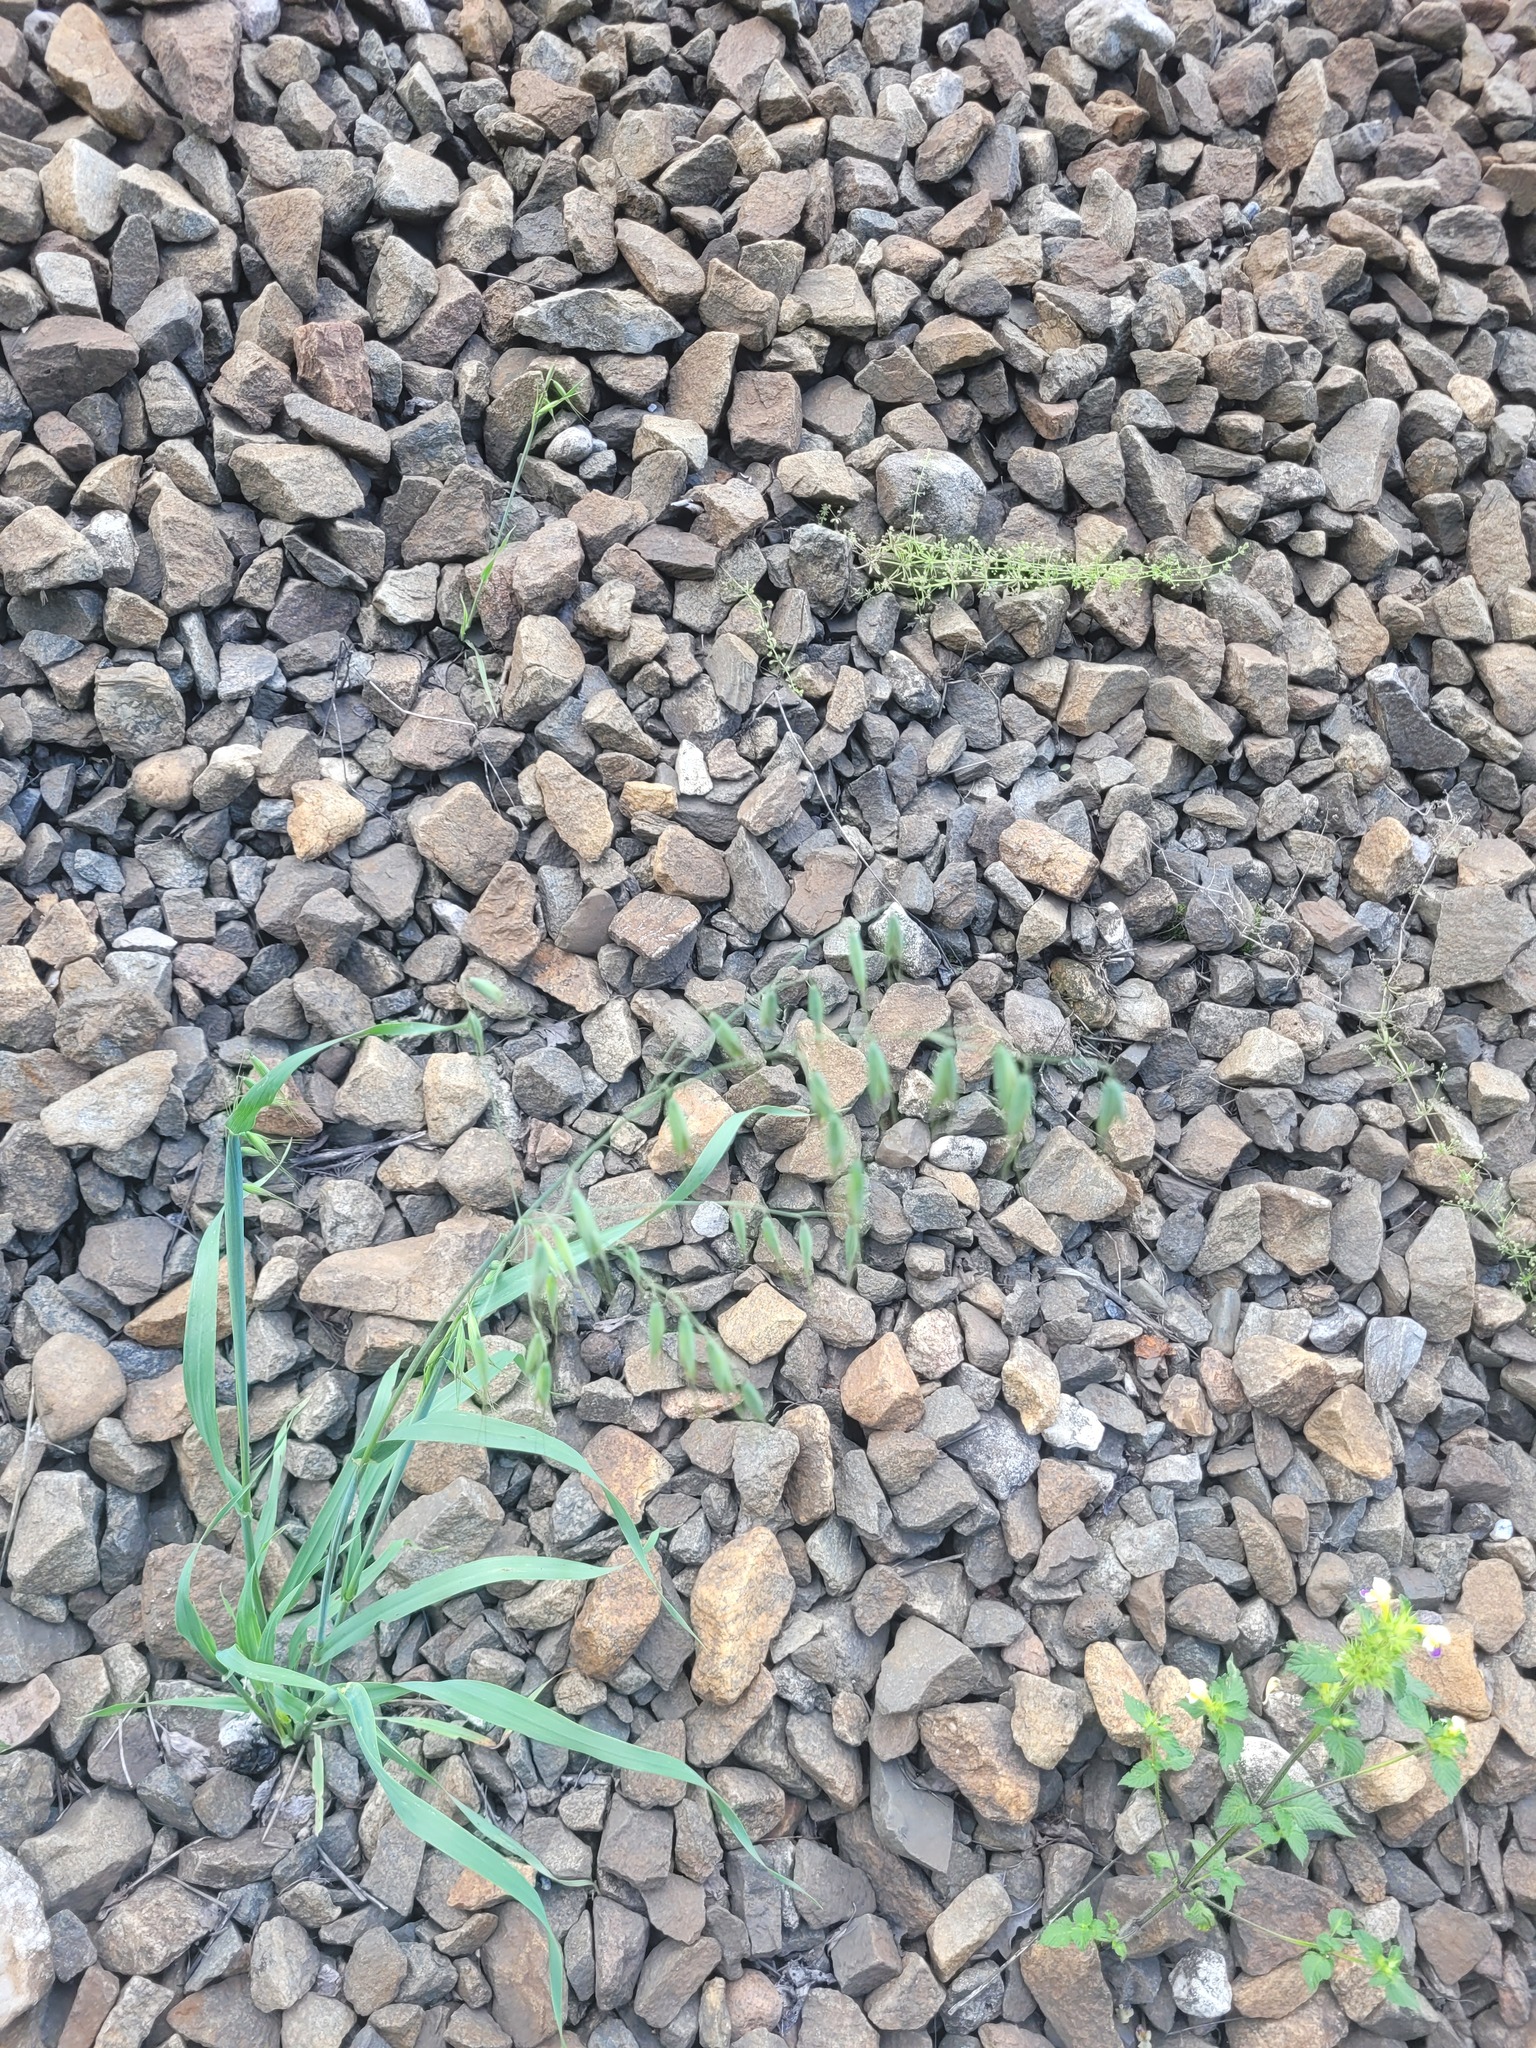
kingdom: Plantae
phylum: Tracheophyta
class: Liliopsida
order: Poales
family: Poaceae
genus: Avena
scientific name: Avena fatua
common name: Wild oat
